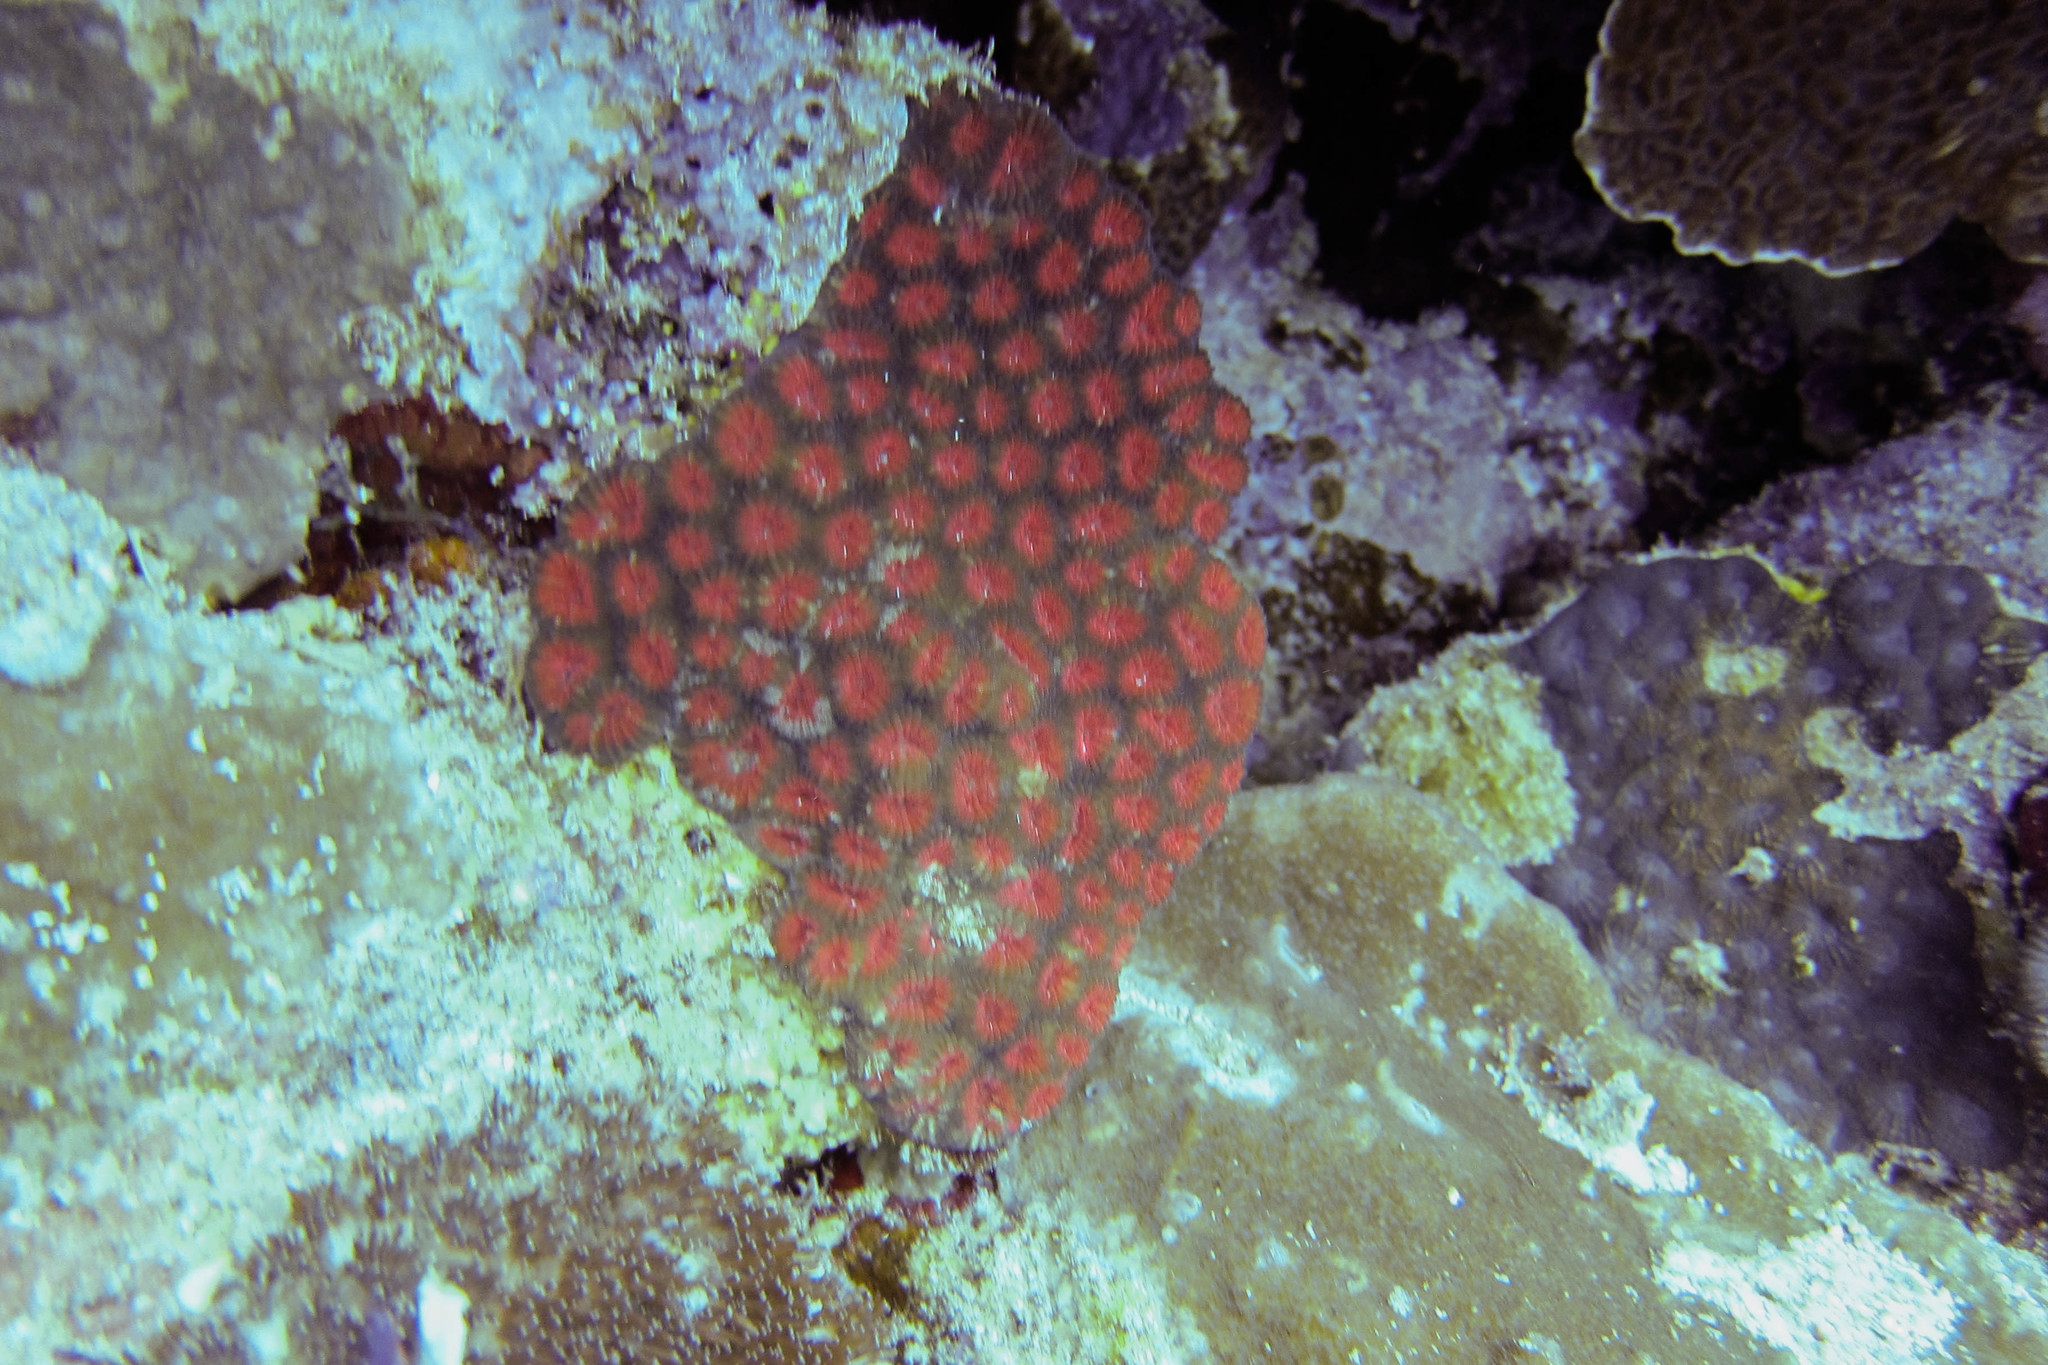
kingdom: Animalia
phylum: Cnidaria
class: Anthozoa
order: Scleractinia
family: Merulinidae
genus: Dipsastraea
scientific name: Dipsastraea
